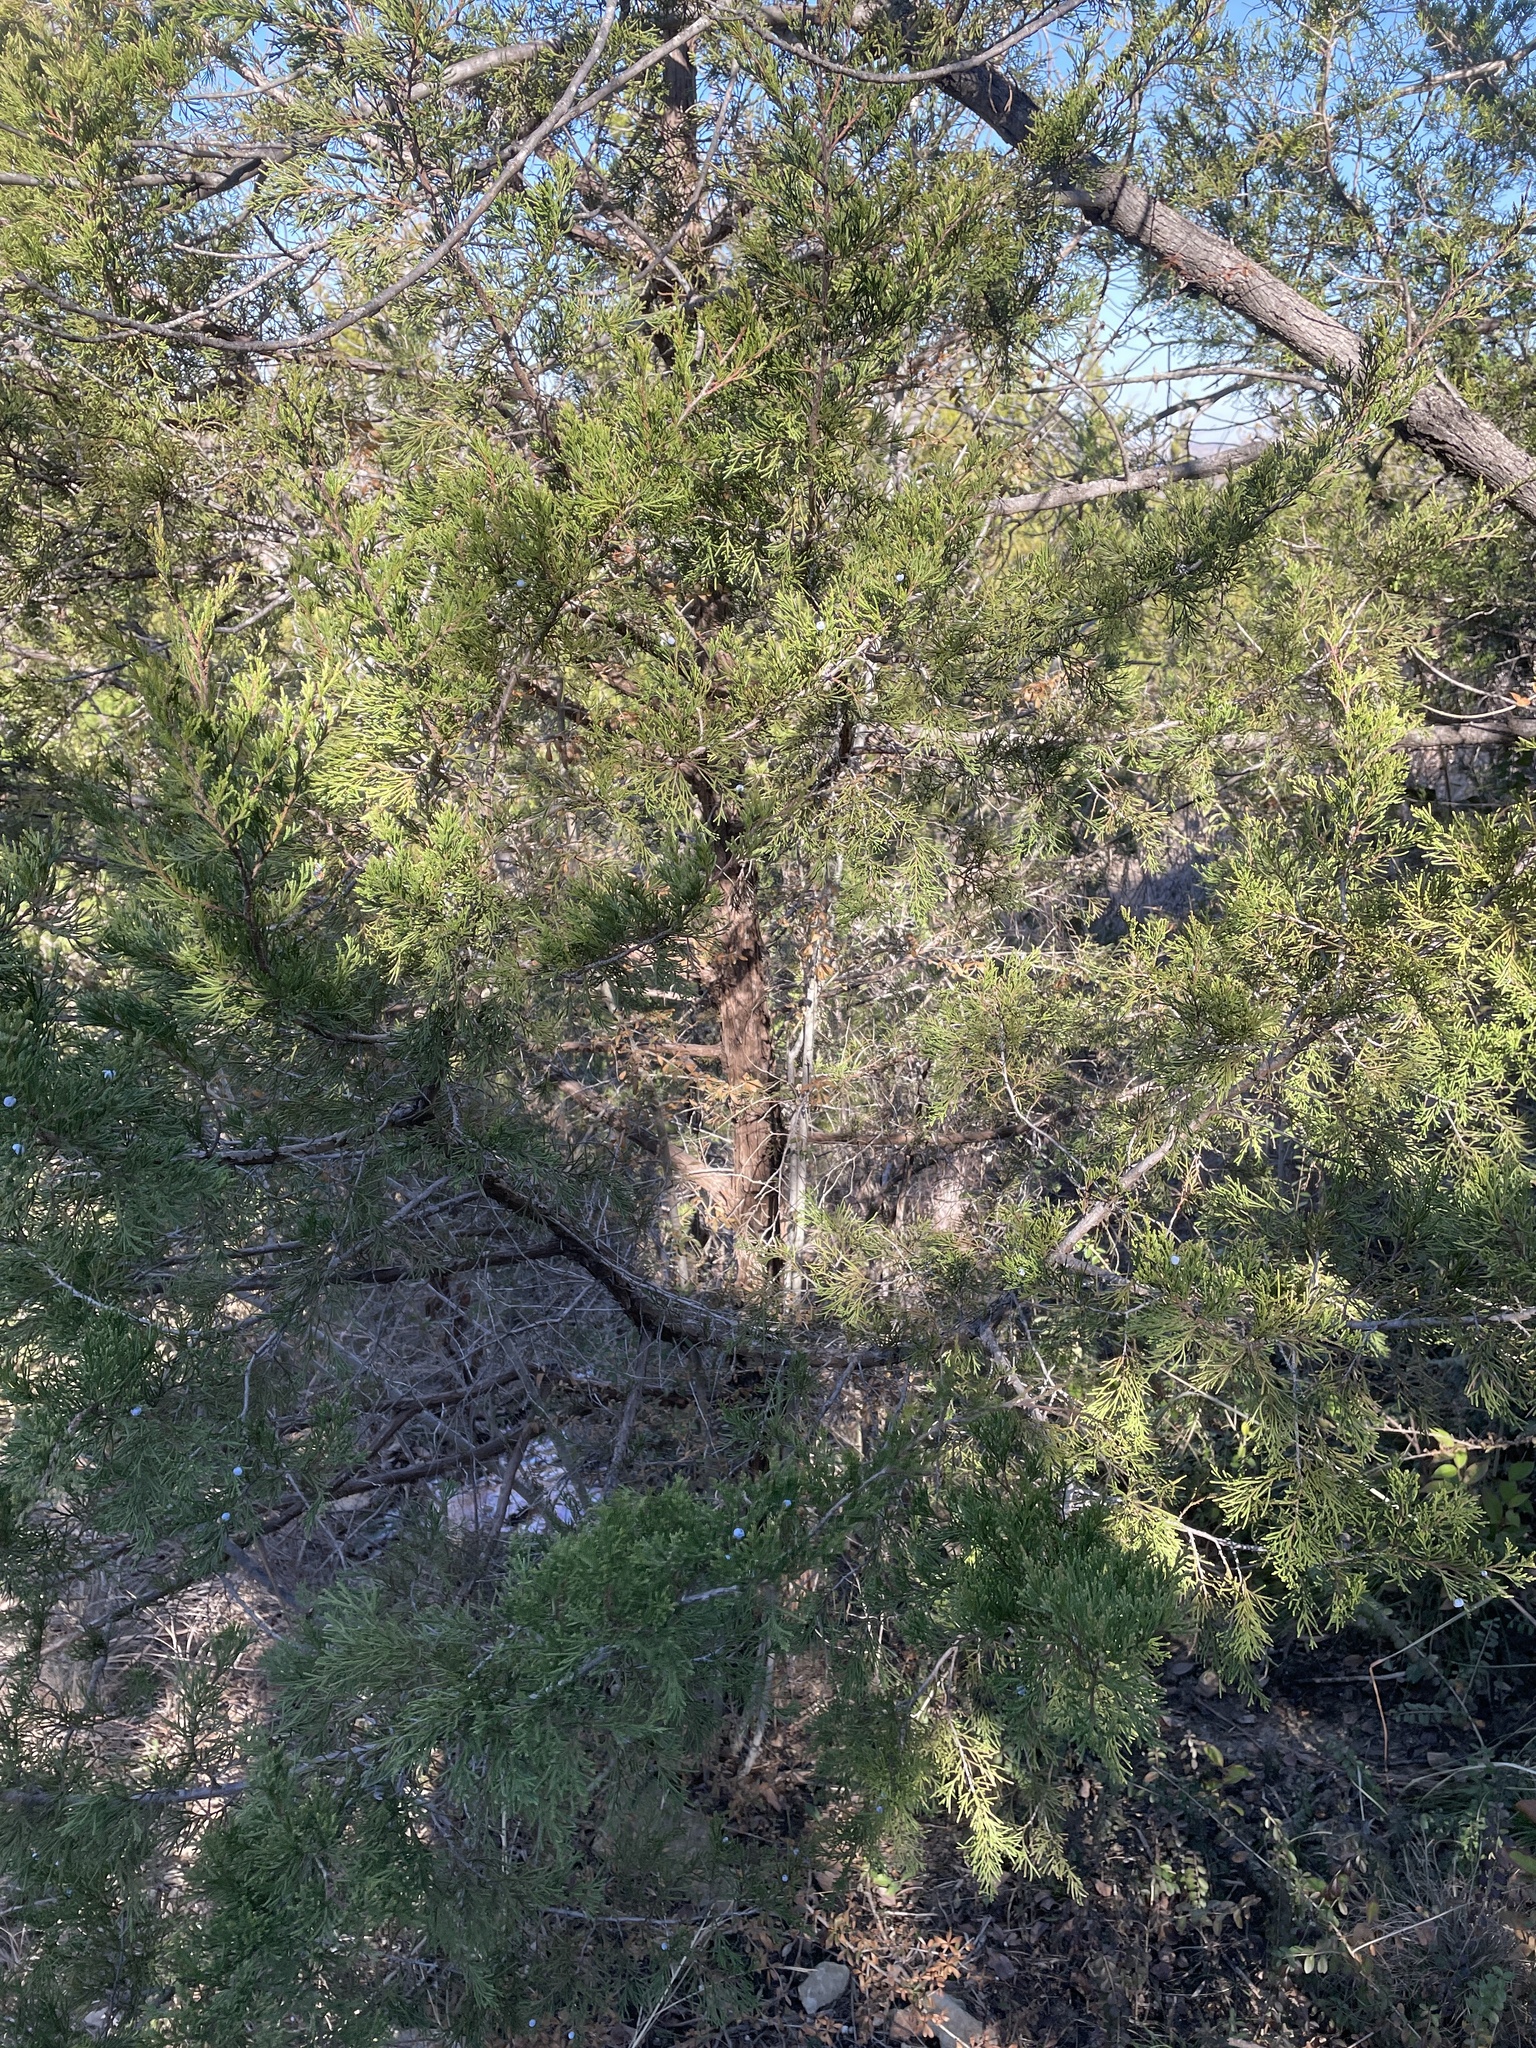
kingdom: Plantae
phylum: Tracheophyta
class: Pinopsida
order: Pinales
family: Cupressaceae
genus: Juniperus
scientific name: Juniperus virginiana
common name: Red juniper
